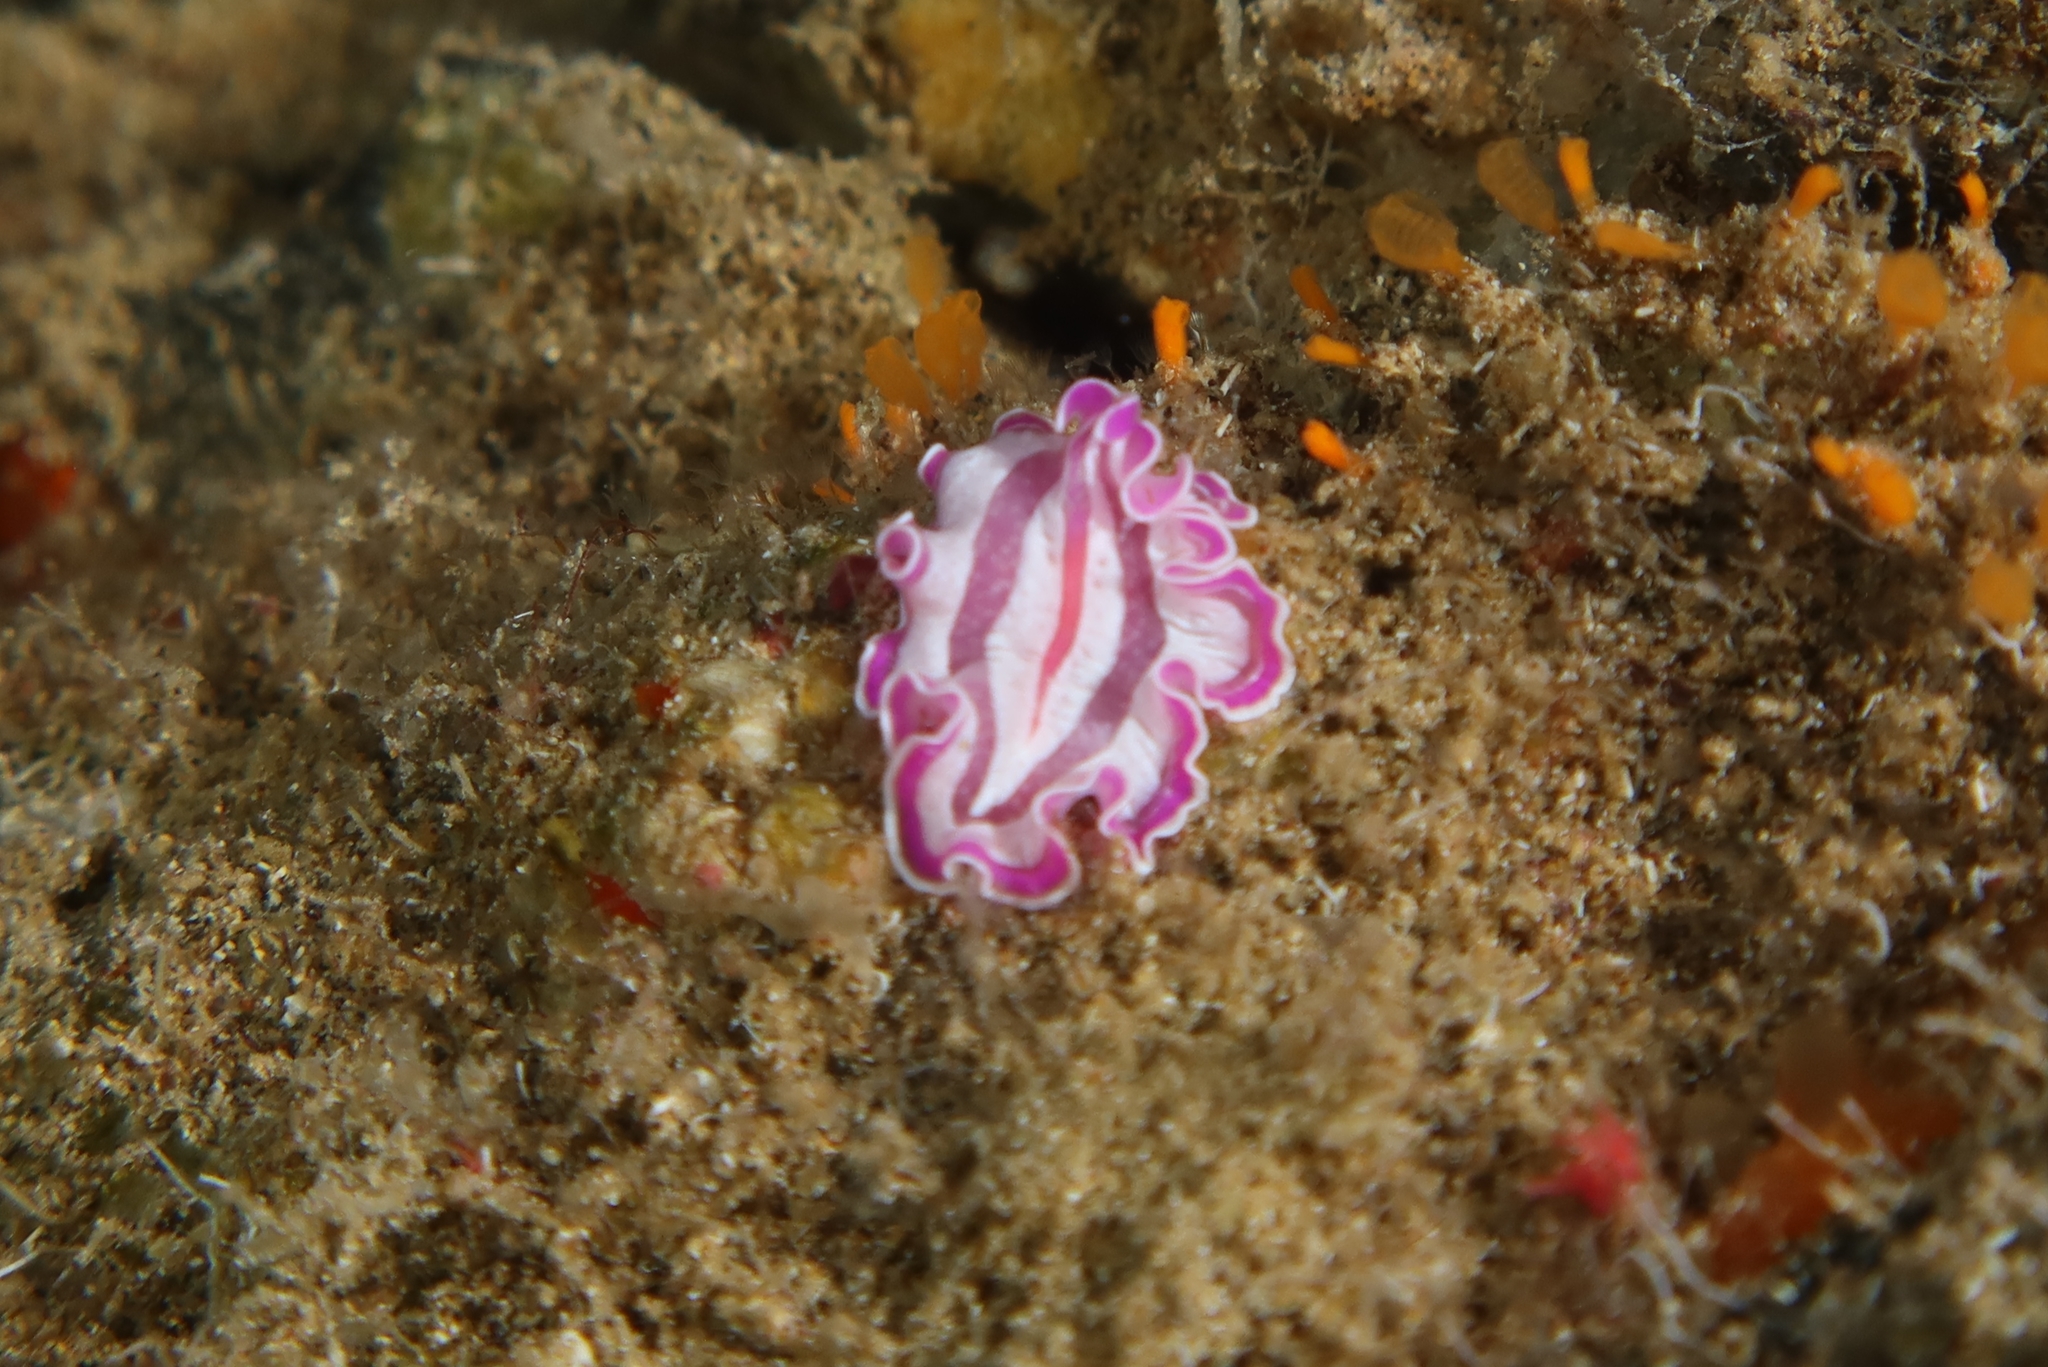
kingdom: Animalia
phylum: Platyhelminthes
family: Euryleptidae
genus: Prostheceraeus
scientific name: Prostheceraeus roseus
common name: Pink flatworm
